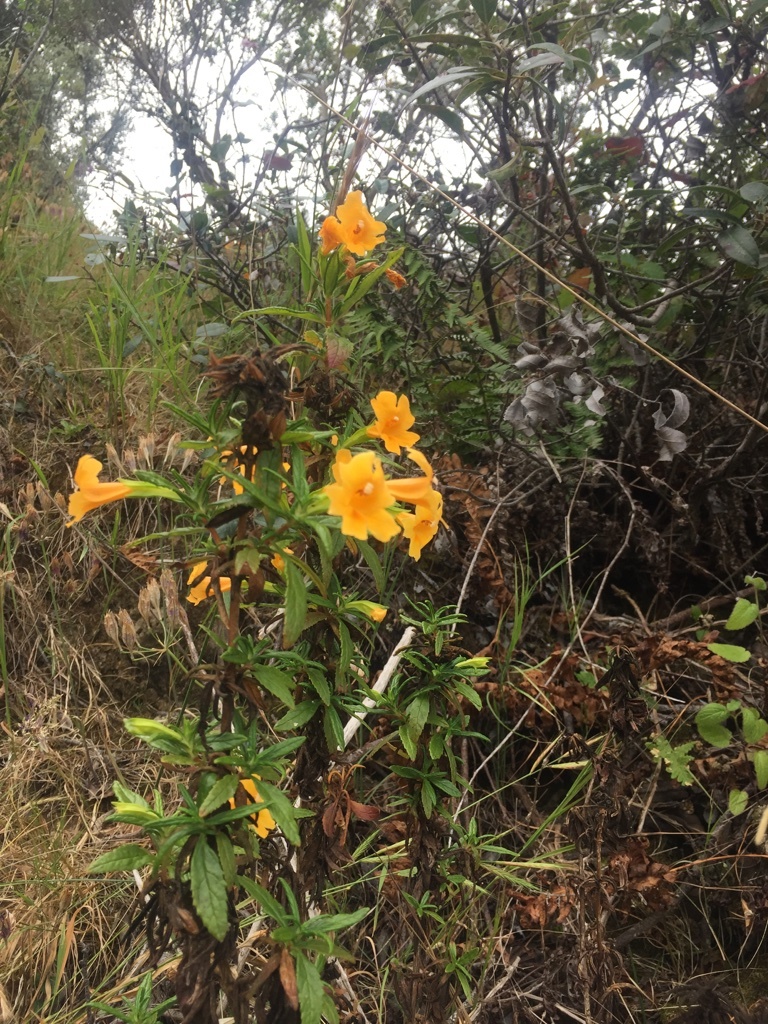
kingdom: Plantae
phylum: Tracheophyta
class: Magnoliopsida
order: Lamiales
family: Phrymaceae
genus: Diplacus
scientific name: Diplacus aurantiacus
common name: Bush monkey-flower
